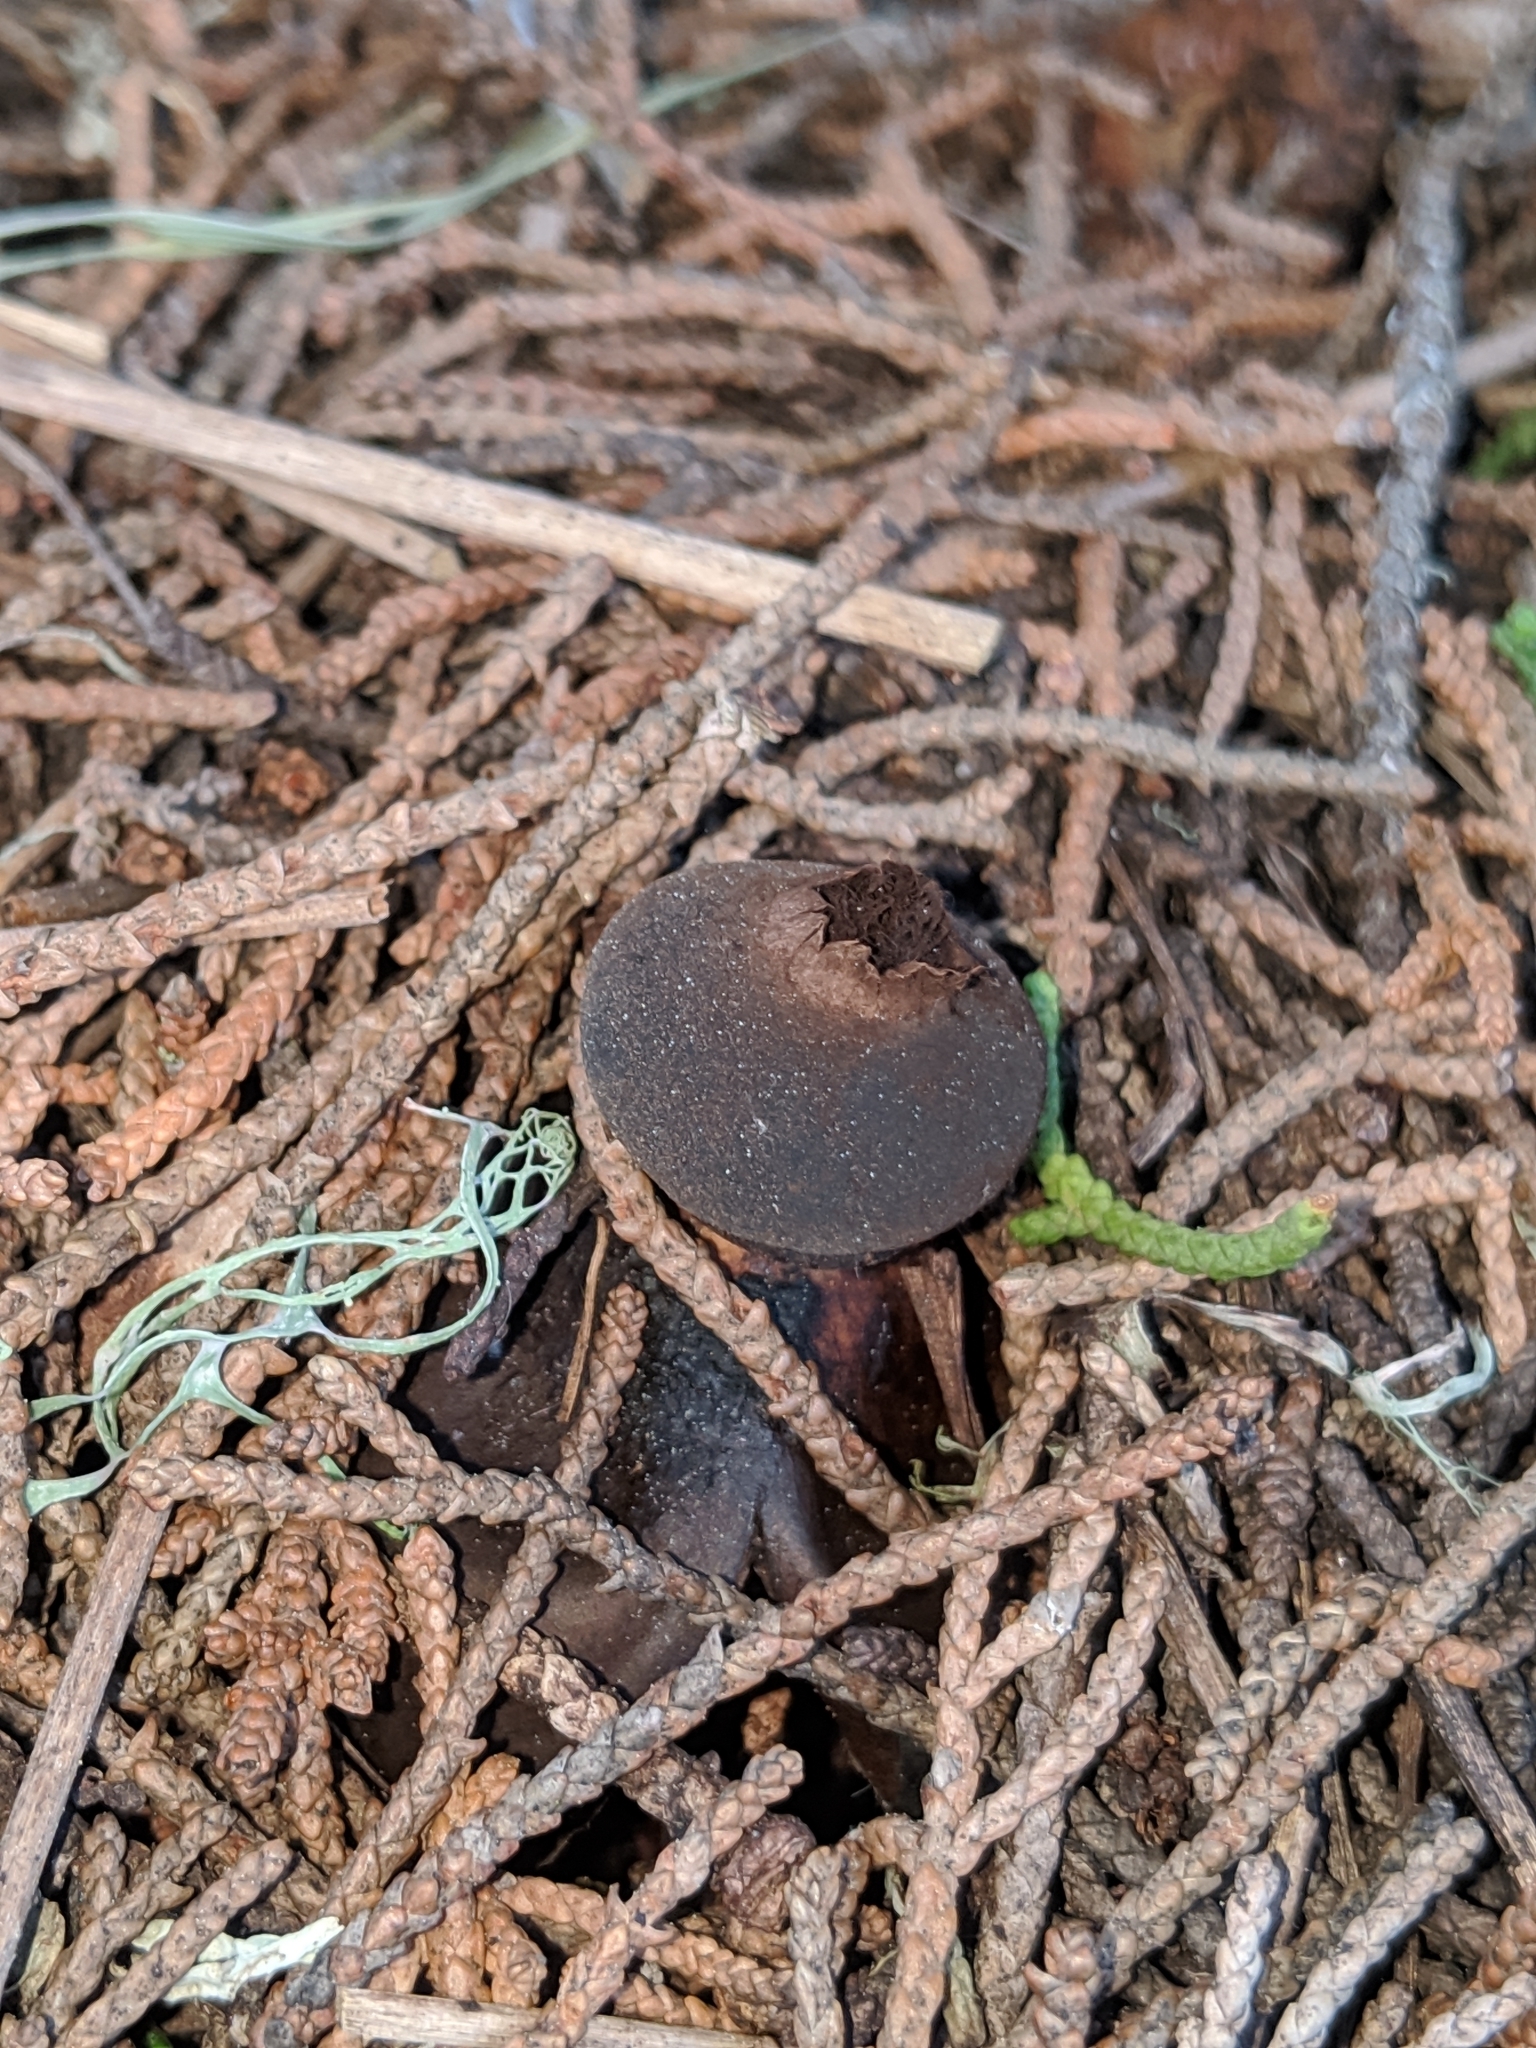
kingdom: Fungi
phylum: Basidiomycota
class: Agaricomycetes
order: Geastrales
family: Geastraceae
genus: Geastrum
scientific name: Geastrum fornicatum
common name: Arched earthstar
